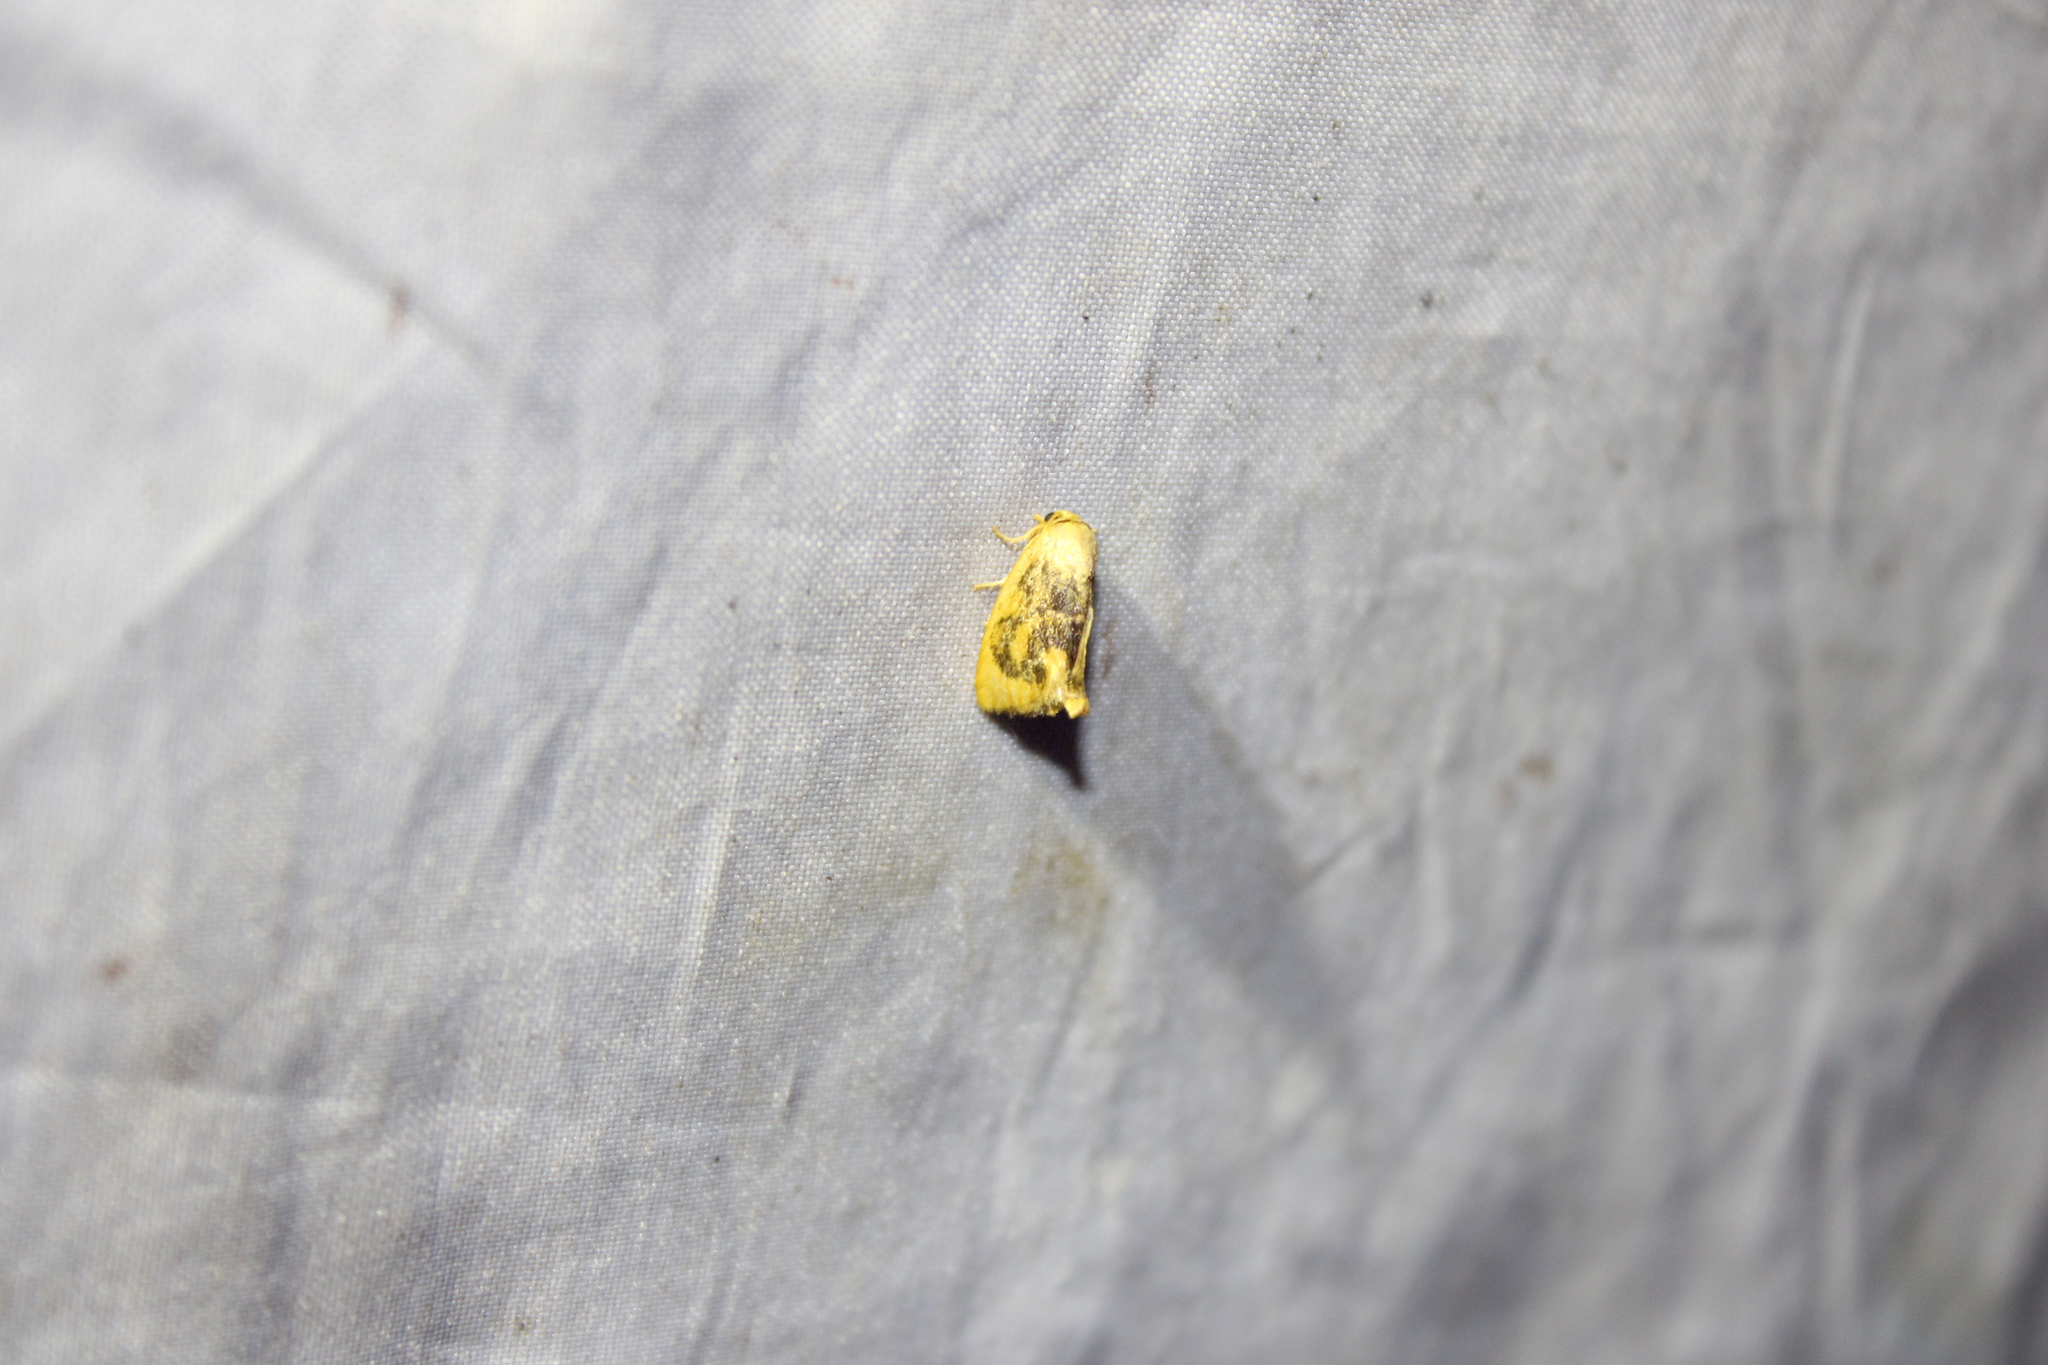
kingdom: Animalia
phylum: Arthropoda
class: Insecta
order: Lepidoptera
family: Limacodidae
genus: Tortricidia
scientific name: Tortricidia flexuosa
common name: Abbreviated button slug moth
